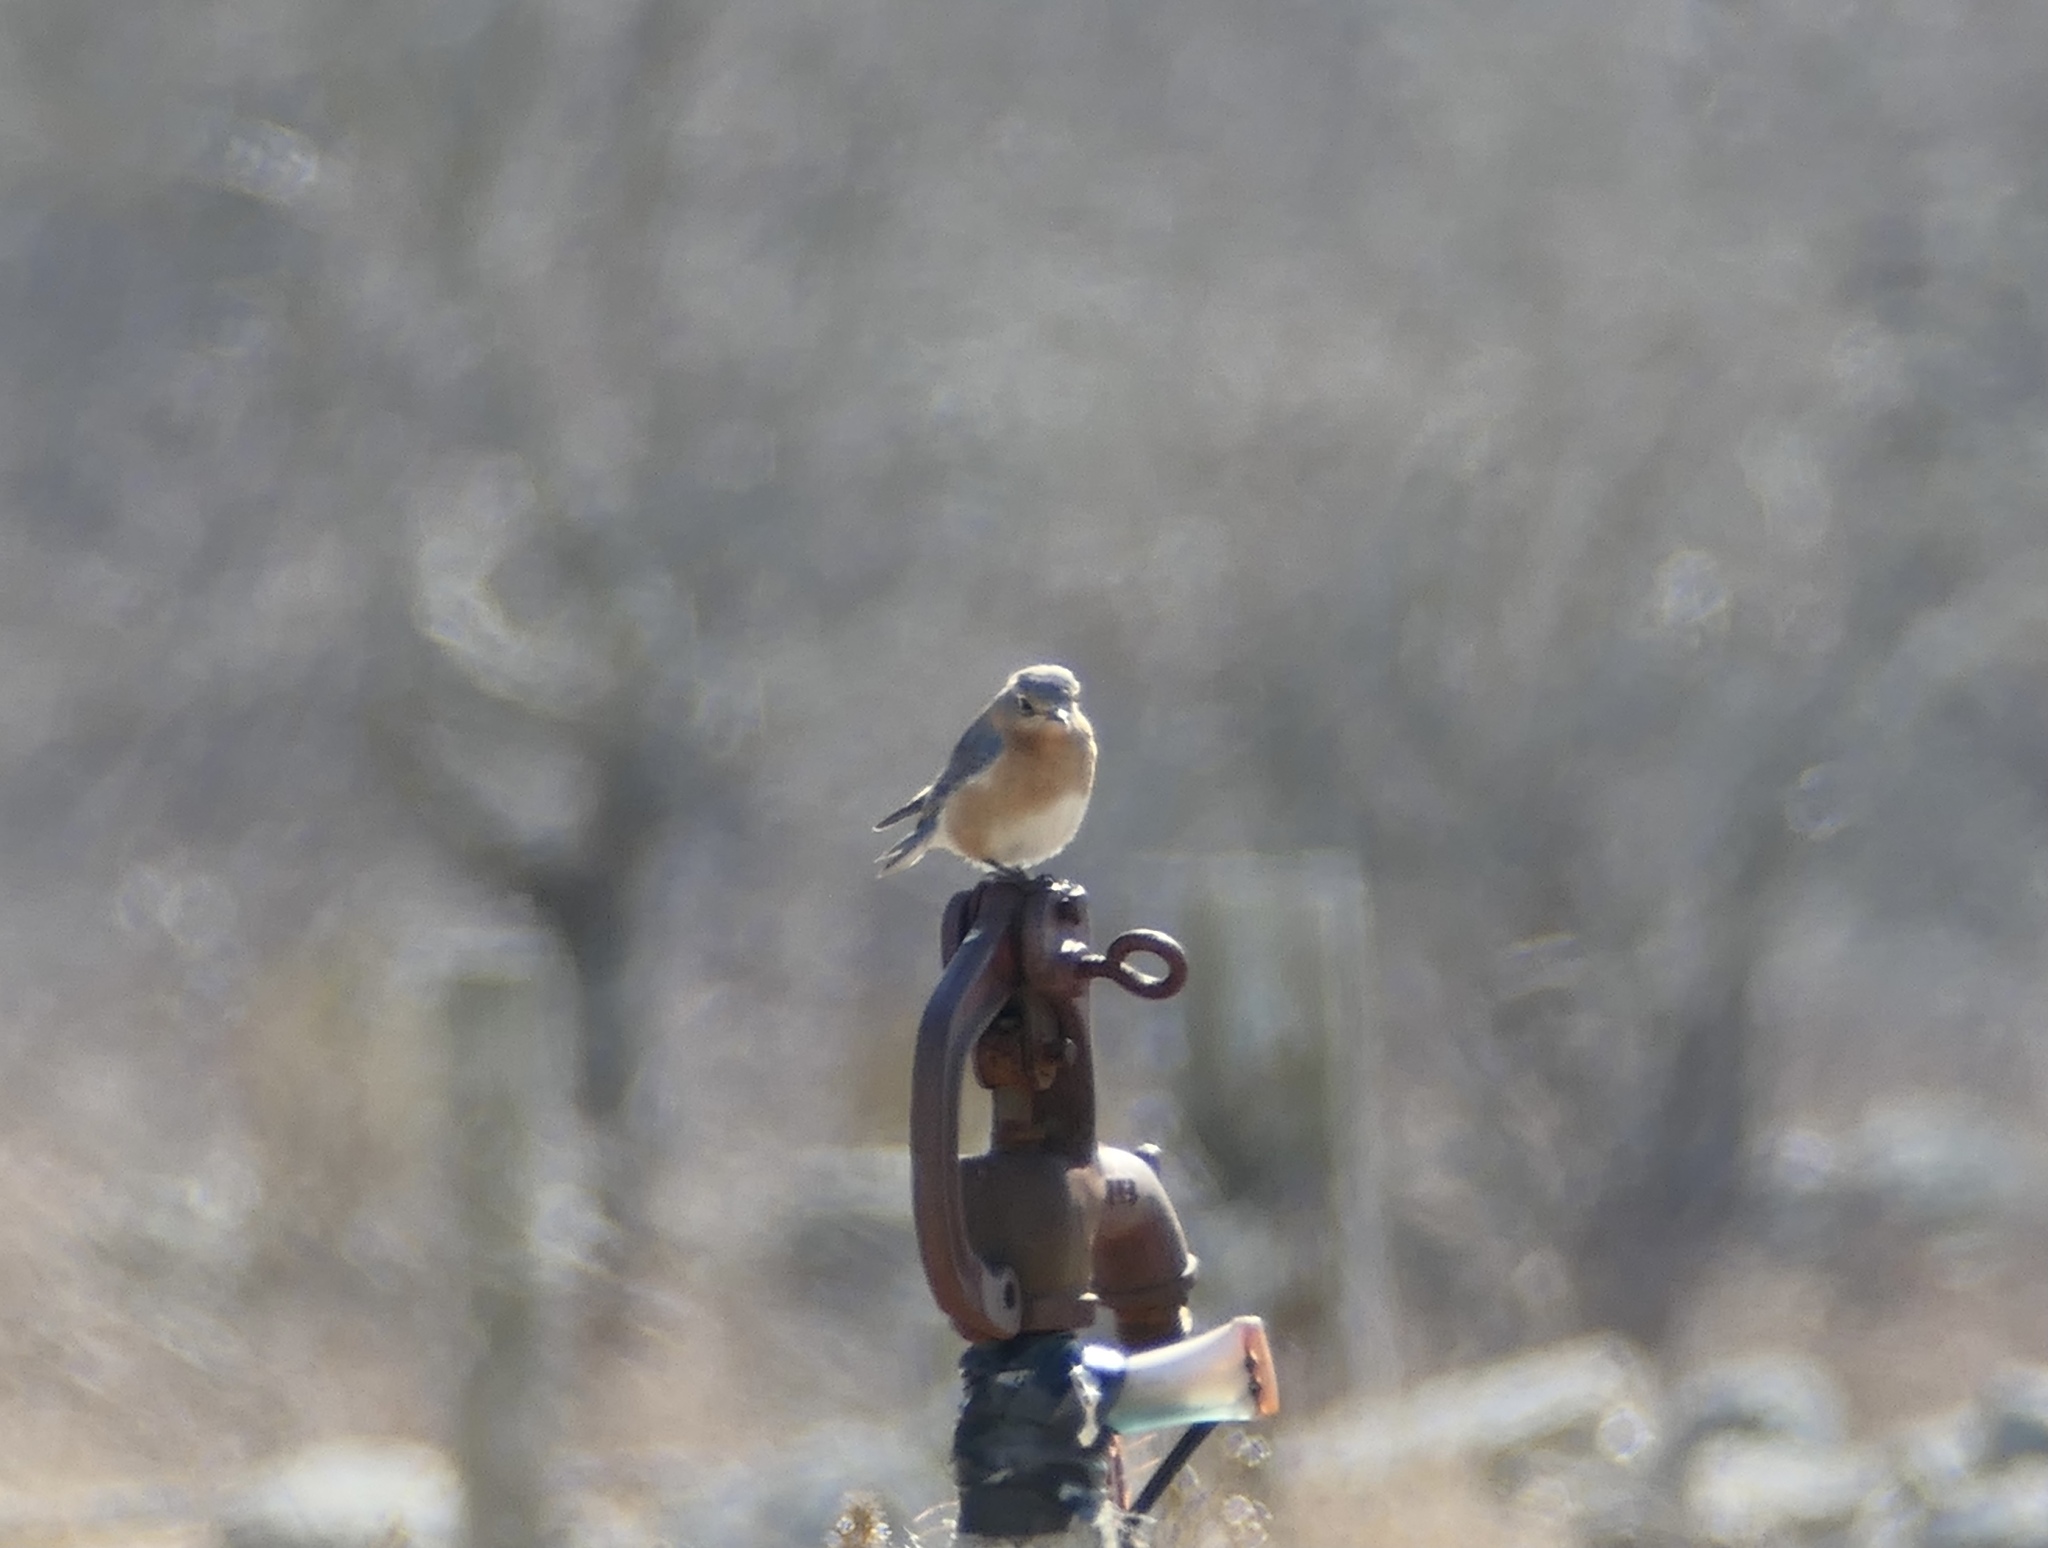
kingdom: Animalia
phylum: Chordata
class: Aves
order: Passeriformes
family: Turdidae
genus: Sialia
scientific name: Sialia sialis
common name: Eastern bluebird
